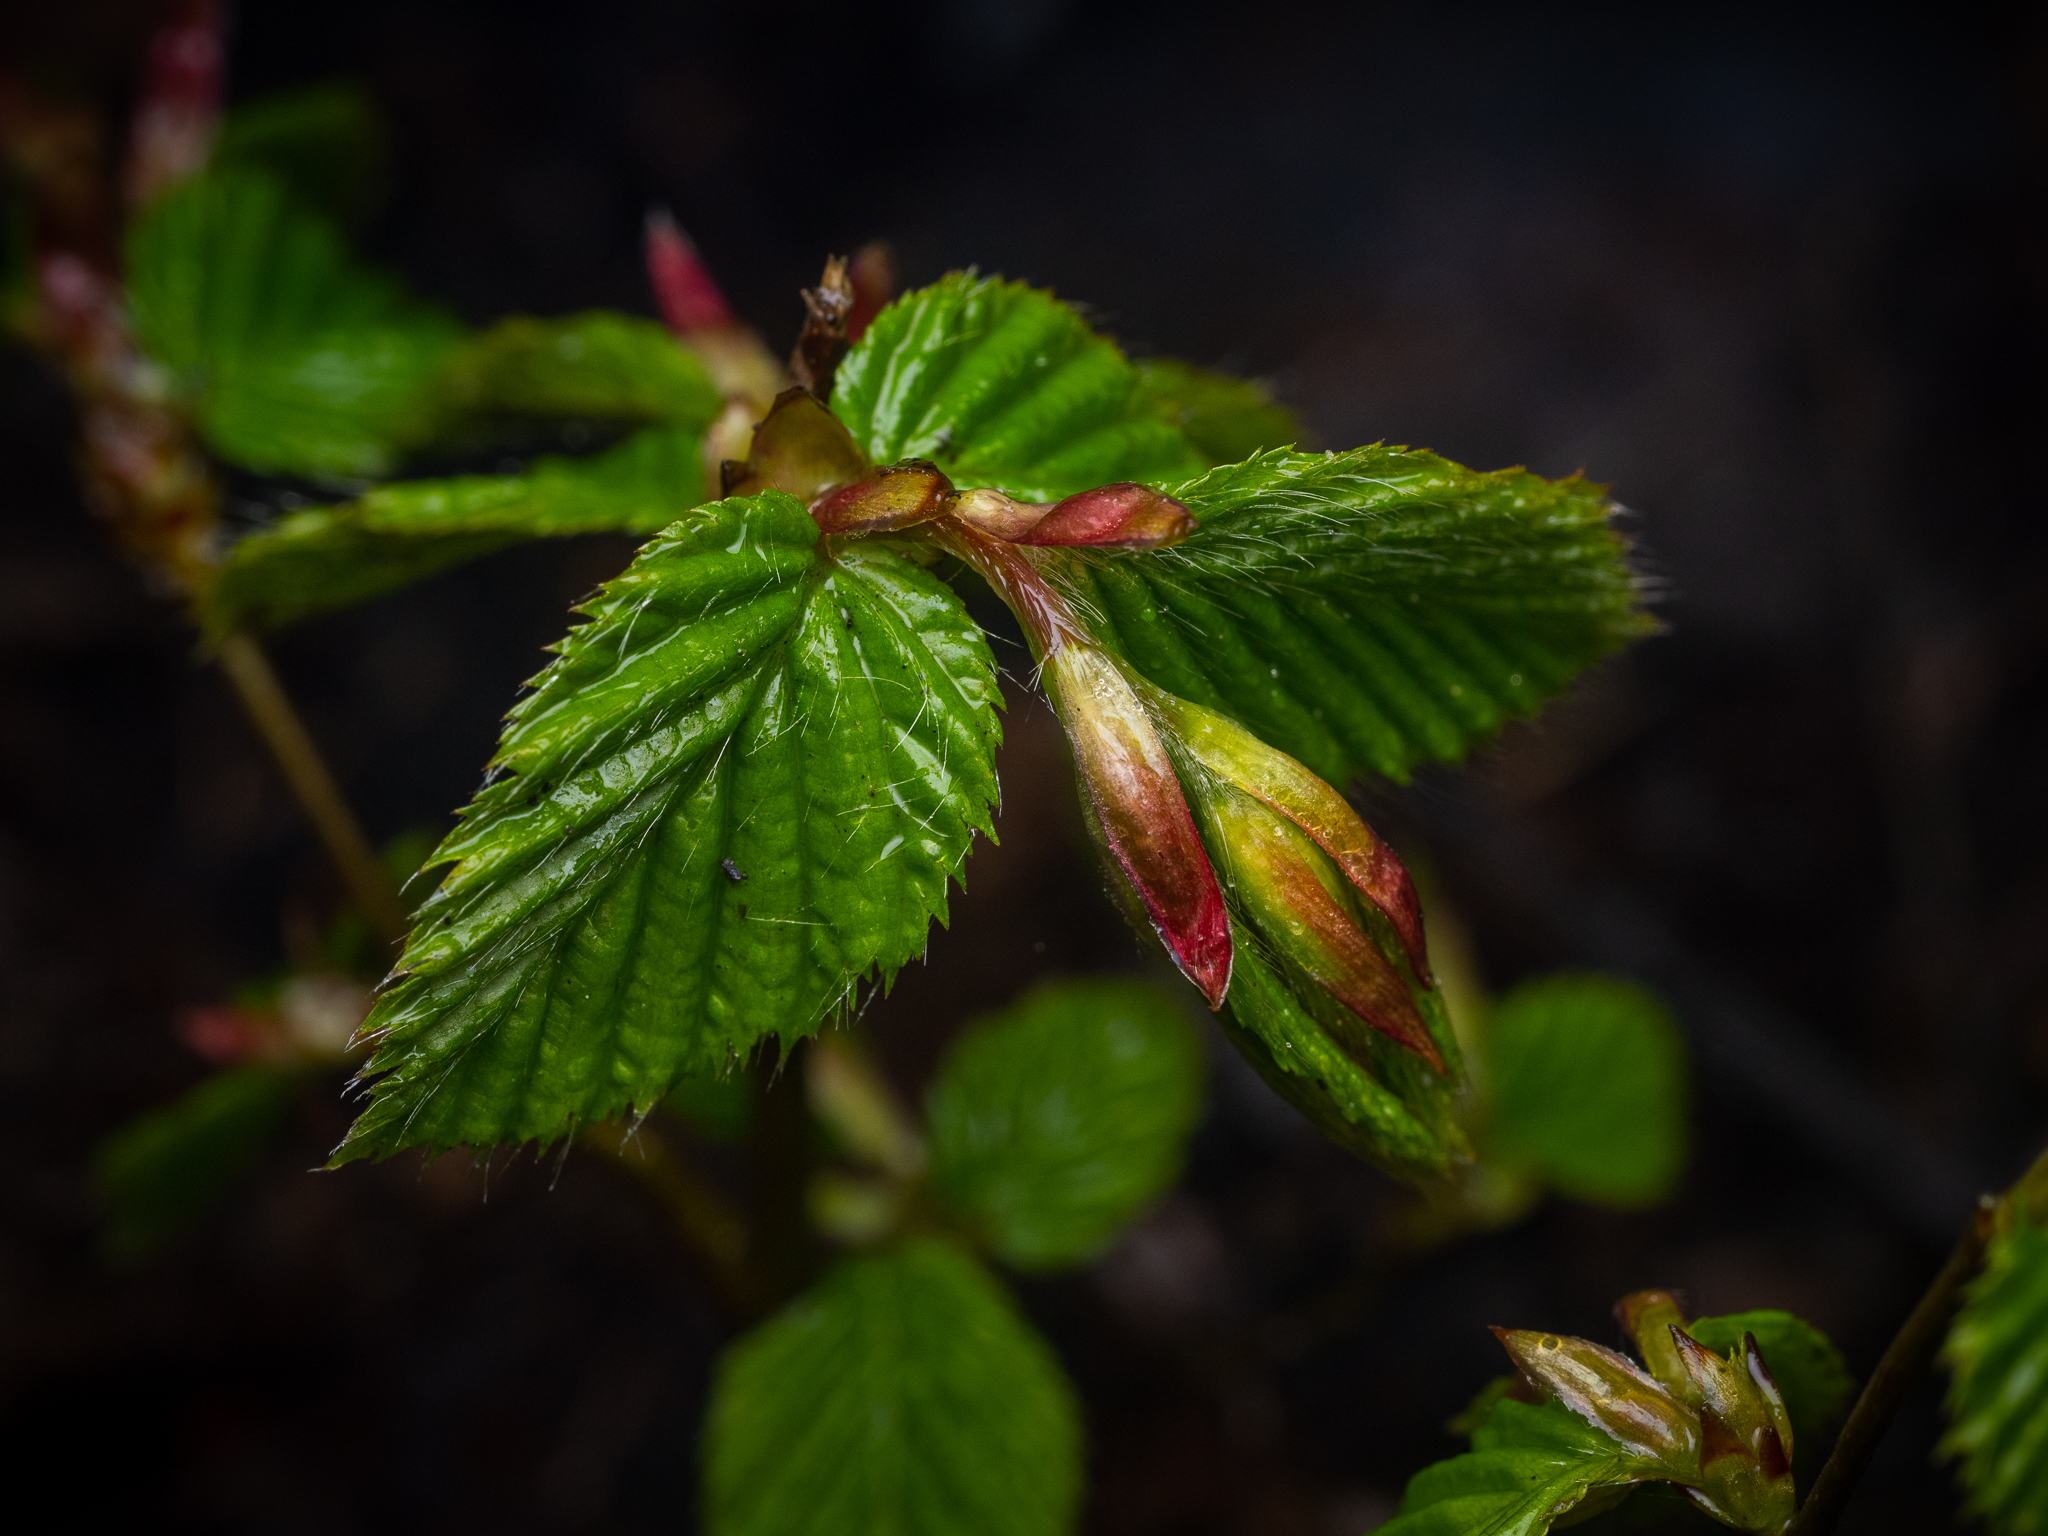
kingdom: Plantae
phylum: Tracheophyta
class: Magnoliopsida
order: Fagales
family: Betulaceae
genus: Carpinus
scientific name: Carpinus betulus
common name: Hornbeam
